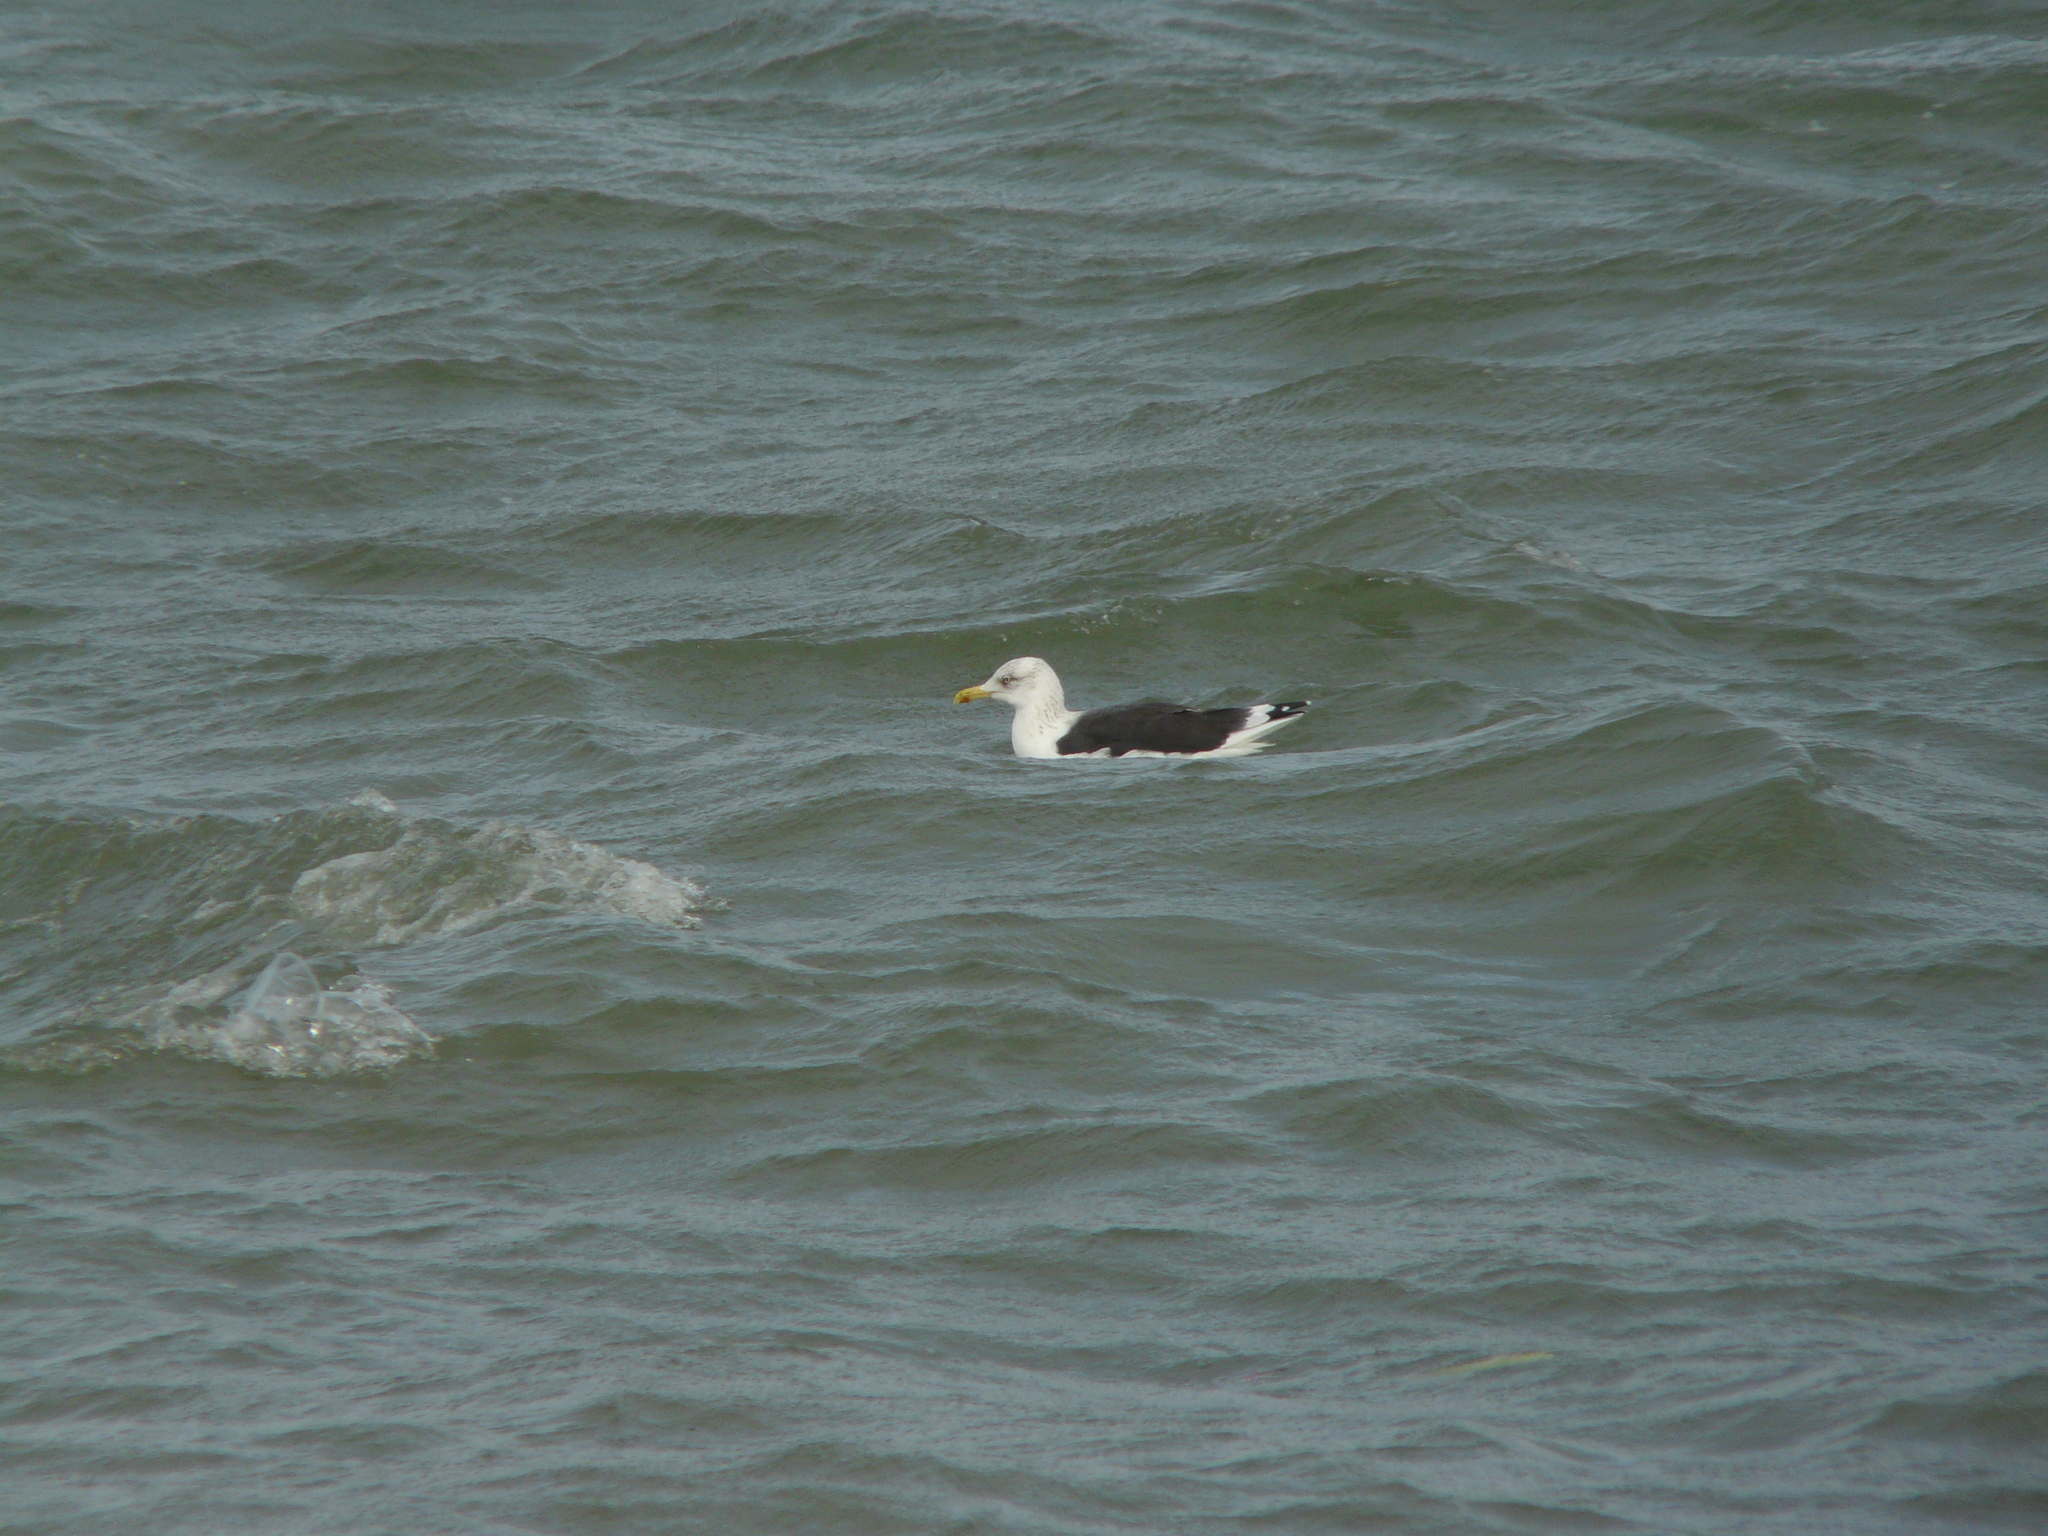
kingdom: Animalia
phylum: Chordata
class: Aves
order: Charadriiformes
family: Laridae
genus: Larus
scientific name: Larus fuscus
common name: Lesser black-backed gull
